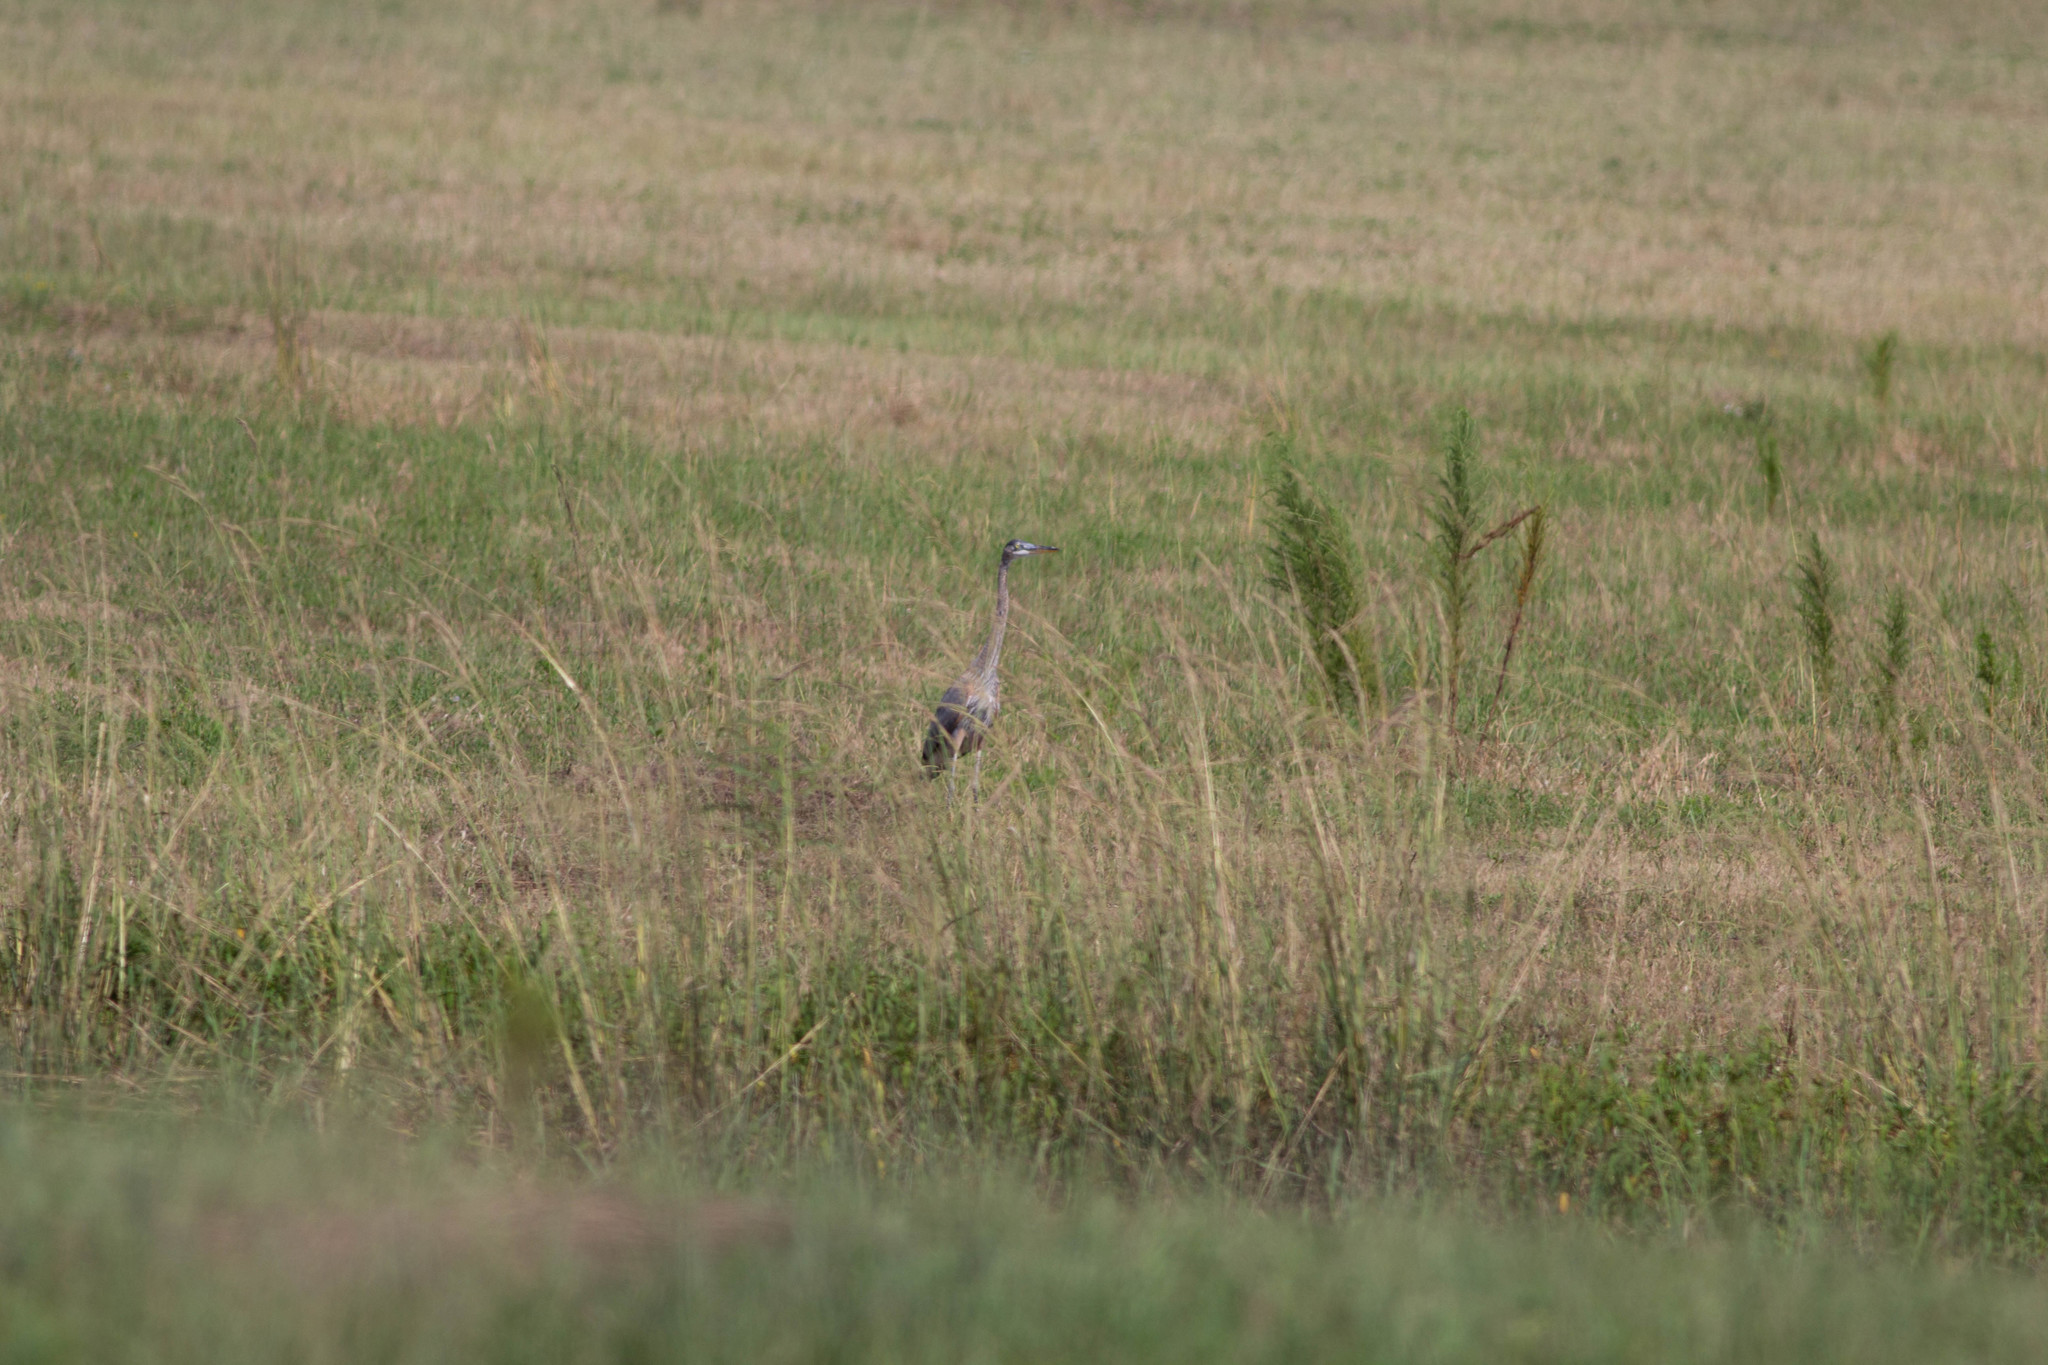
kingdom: Animalia
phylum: Chordata
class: Aves
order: Pelecaniformes
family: Ardeidae
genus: Ardea
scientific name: Ardea herodias
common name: Great blue heron
